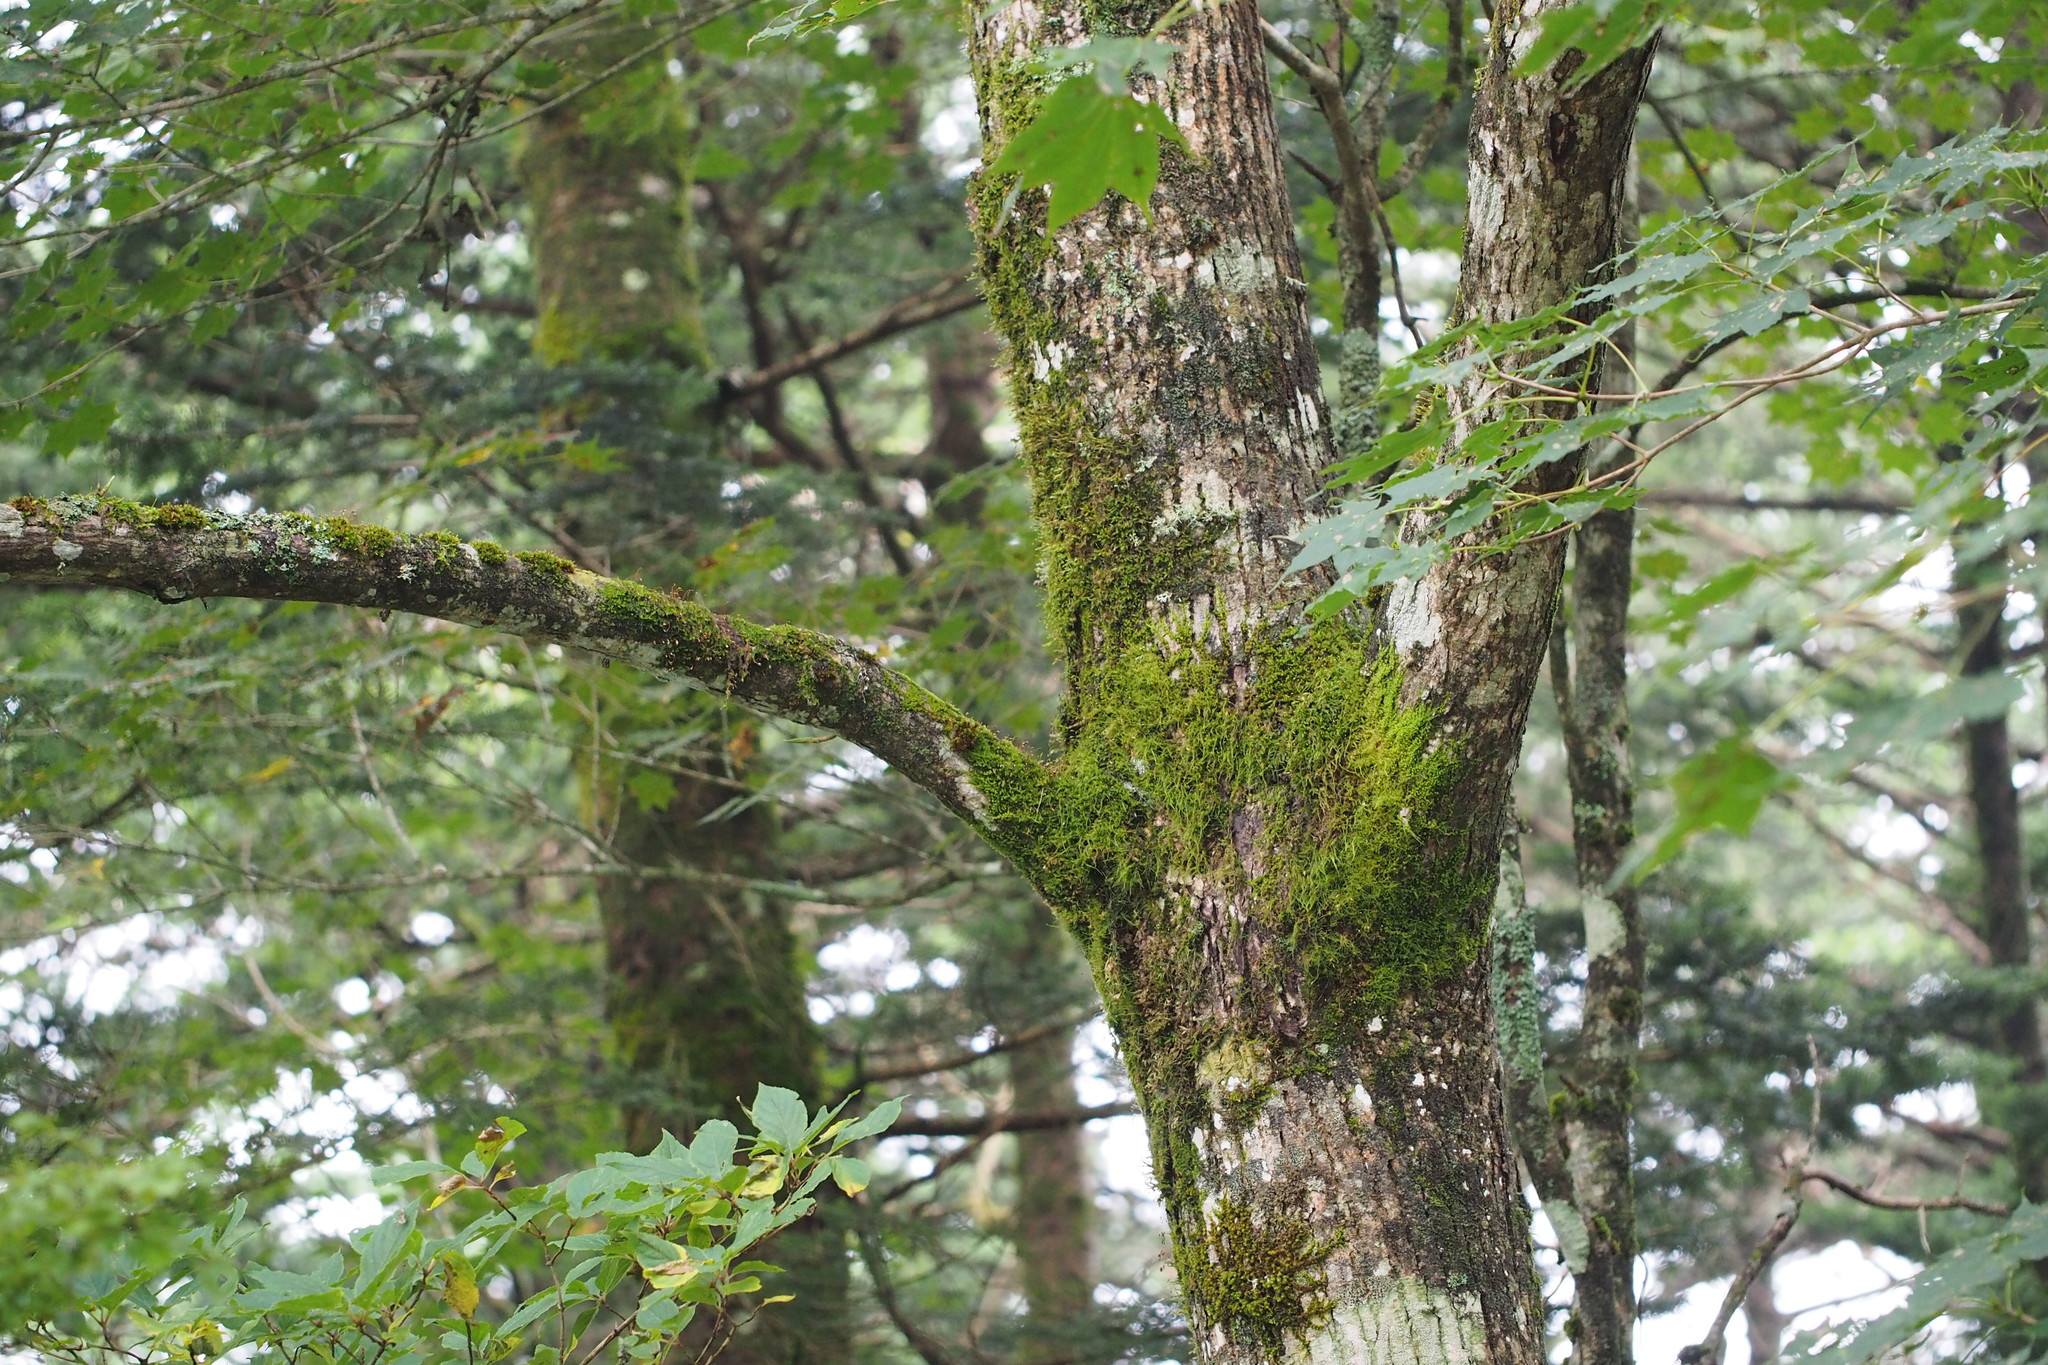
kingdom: Plantae
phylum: Tracheophyta
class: Magnoliopsida
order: Fagales
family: Juglandaceae
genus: Pterocarya
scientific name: Pterocarya rhoifolia
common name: Japanese wingnut
